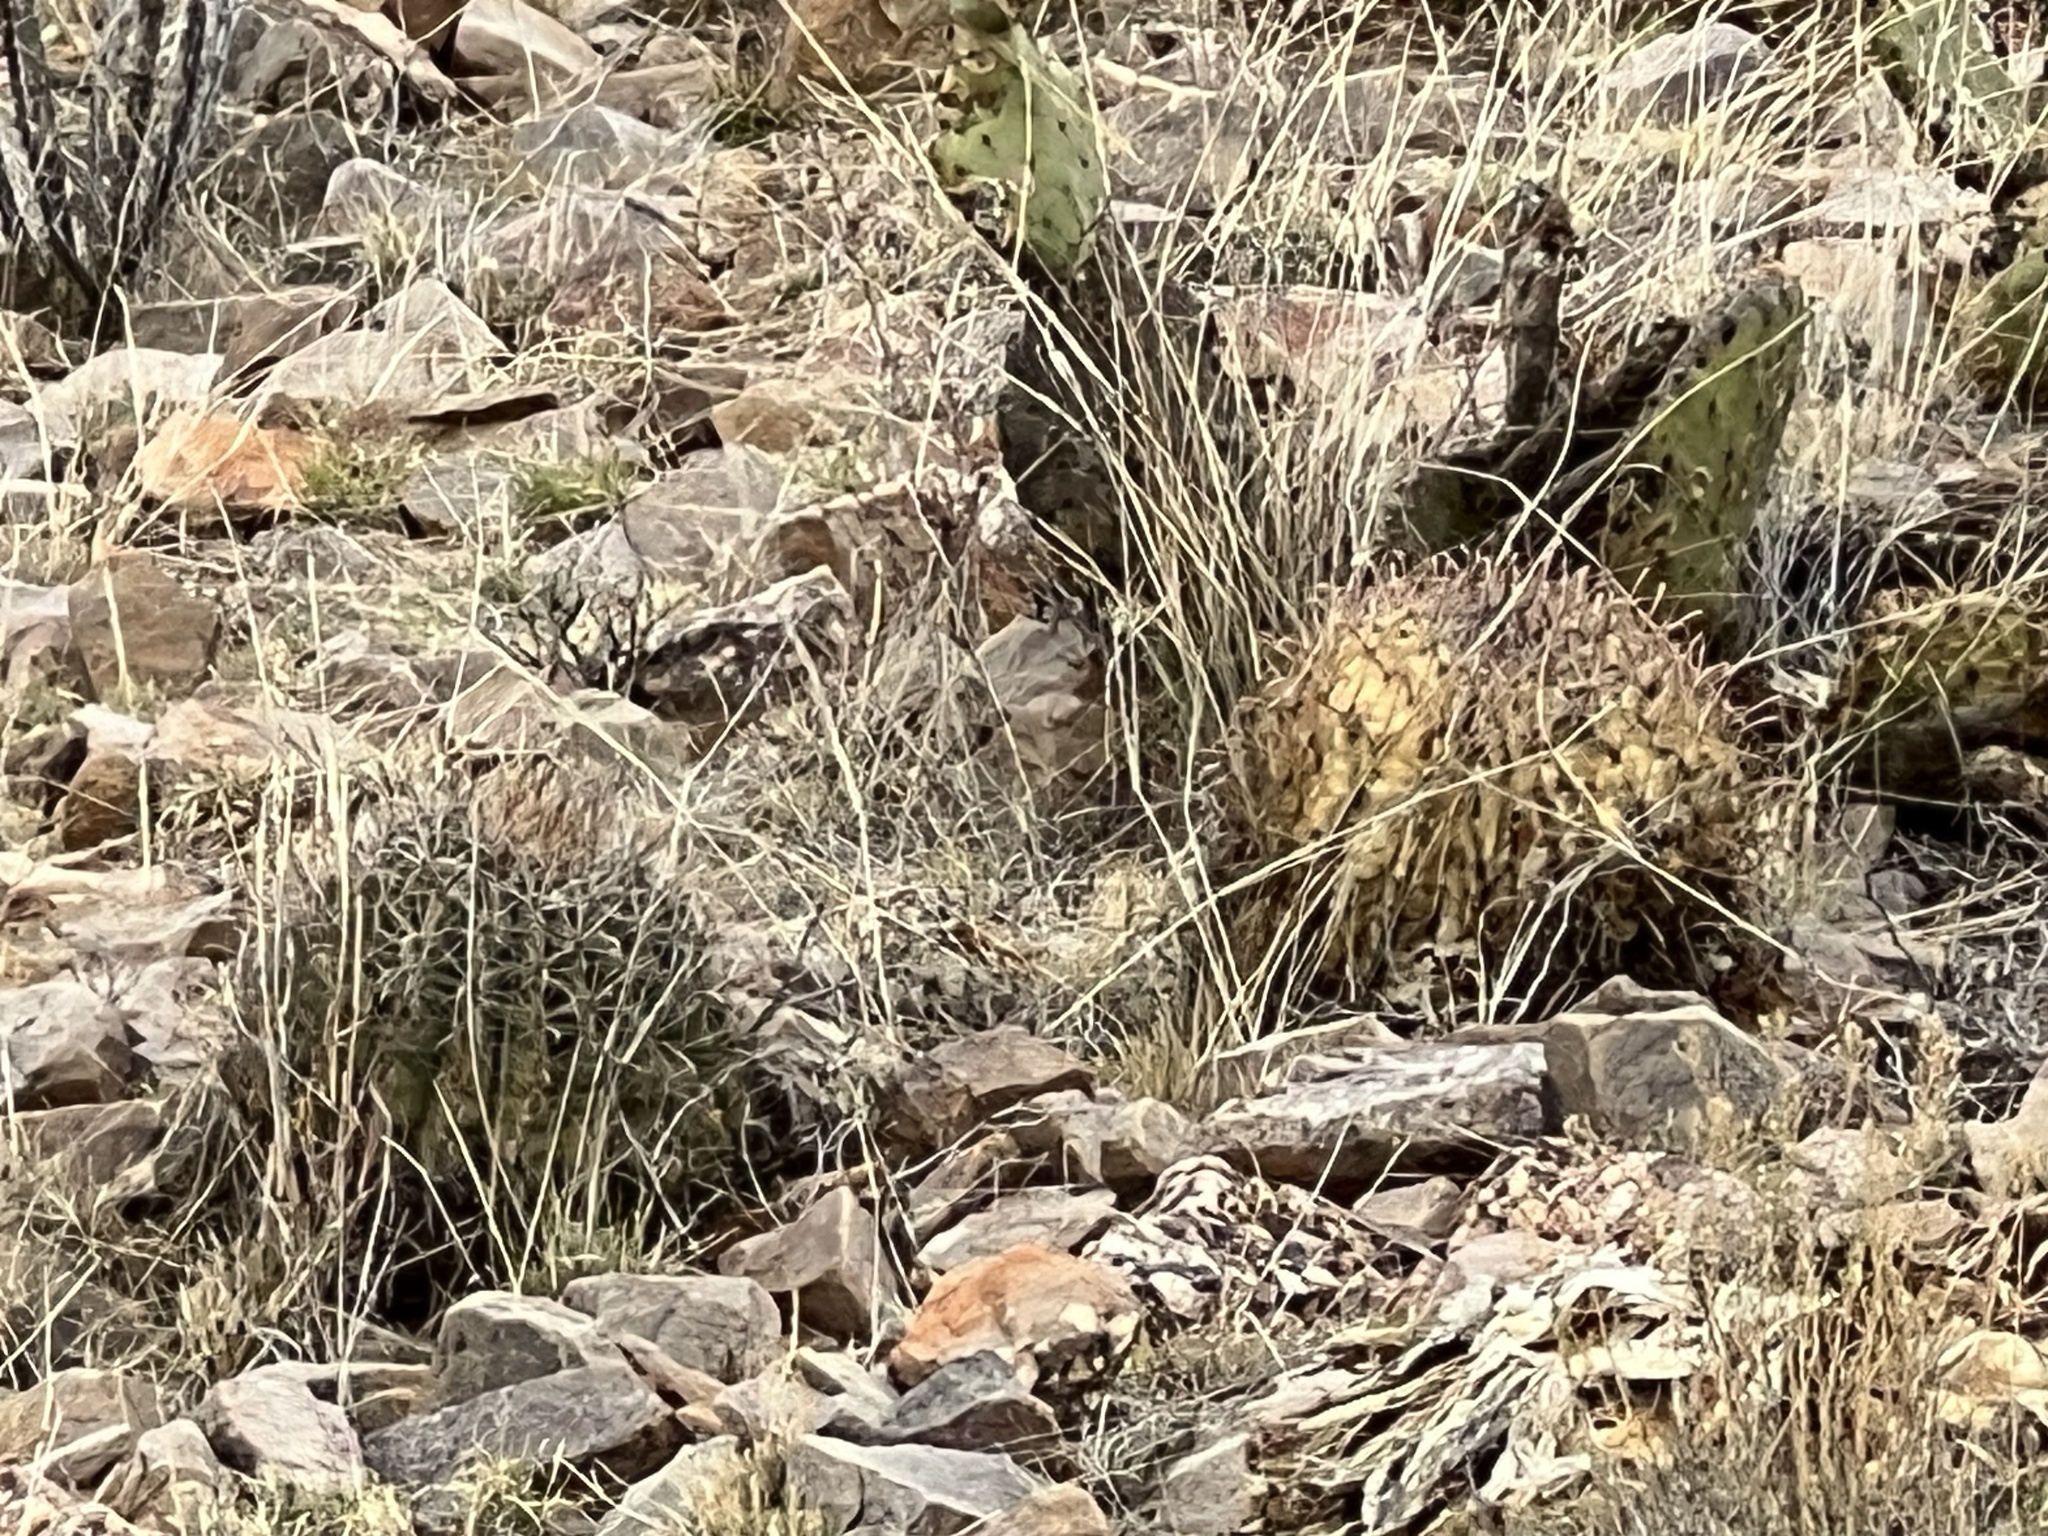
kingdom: Plantae
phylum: Tracheophyta
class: Magnoliopsida
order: Caryophyllales
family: Cactaceae
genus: Ferocactus
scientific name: Ferocactus wislizeni
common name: Candy barrel cactus
